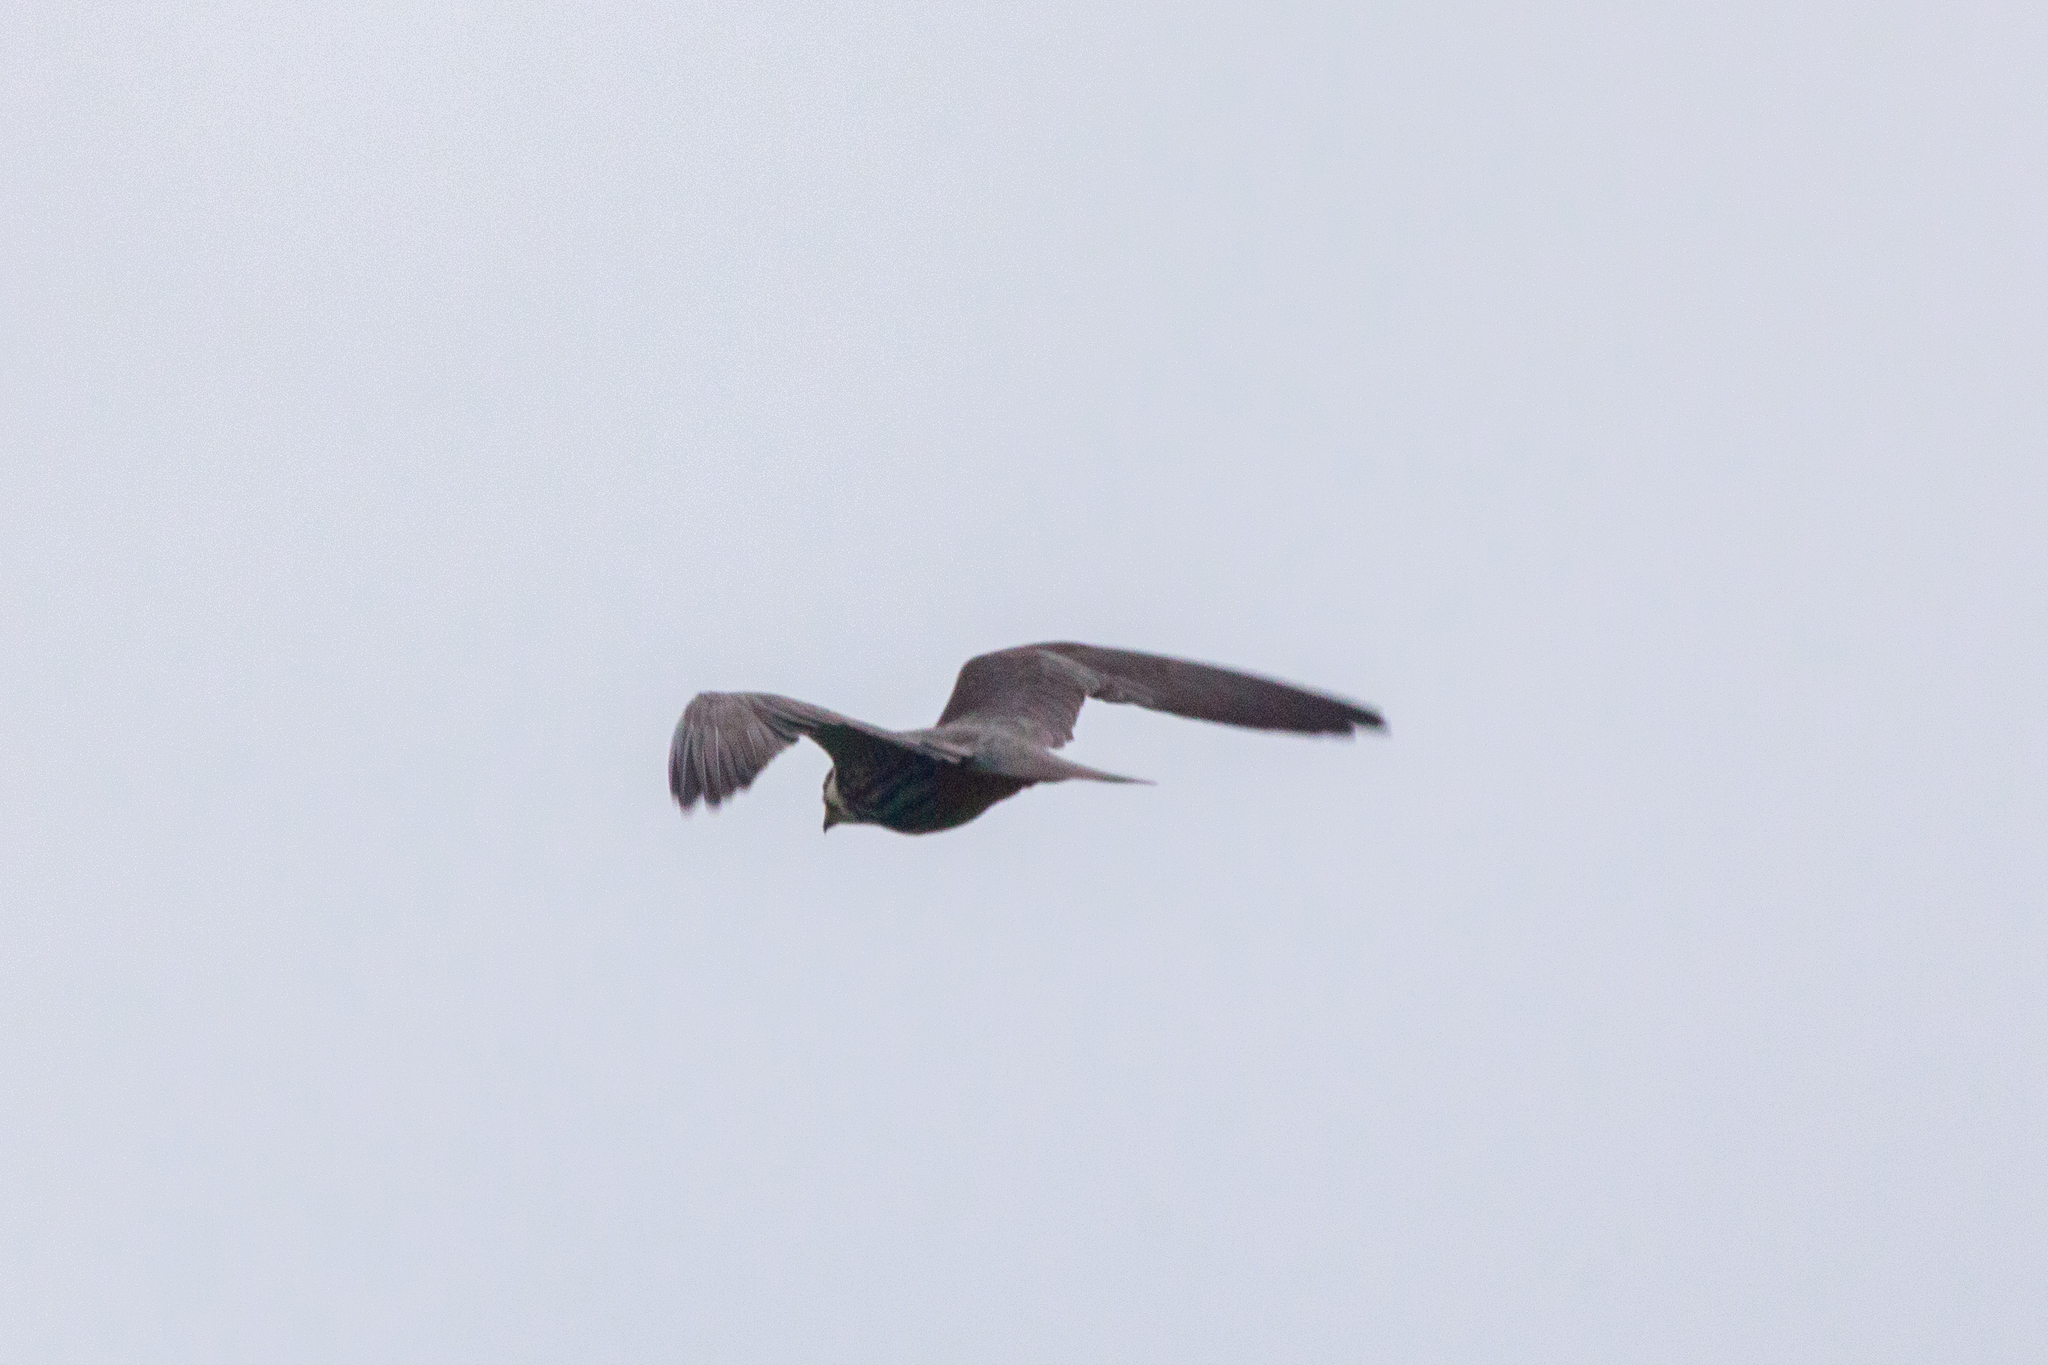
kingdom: Animalia
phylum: Chordata
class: Aves
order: Falconiformes
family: Falconidae
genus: Falco
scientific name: Falco subbuteo
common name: Eurasian hobby
